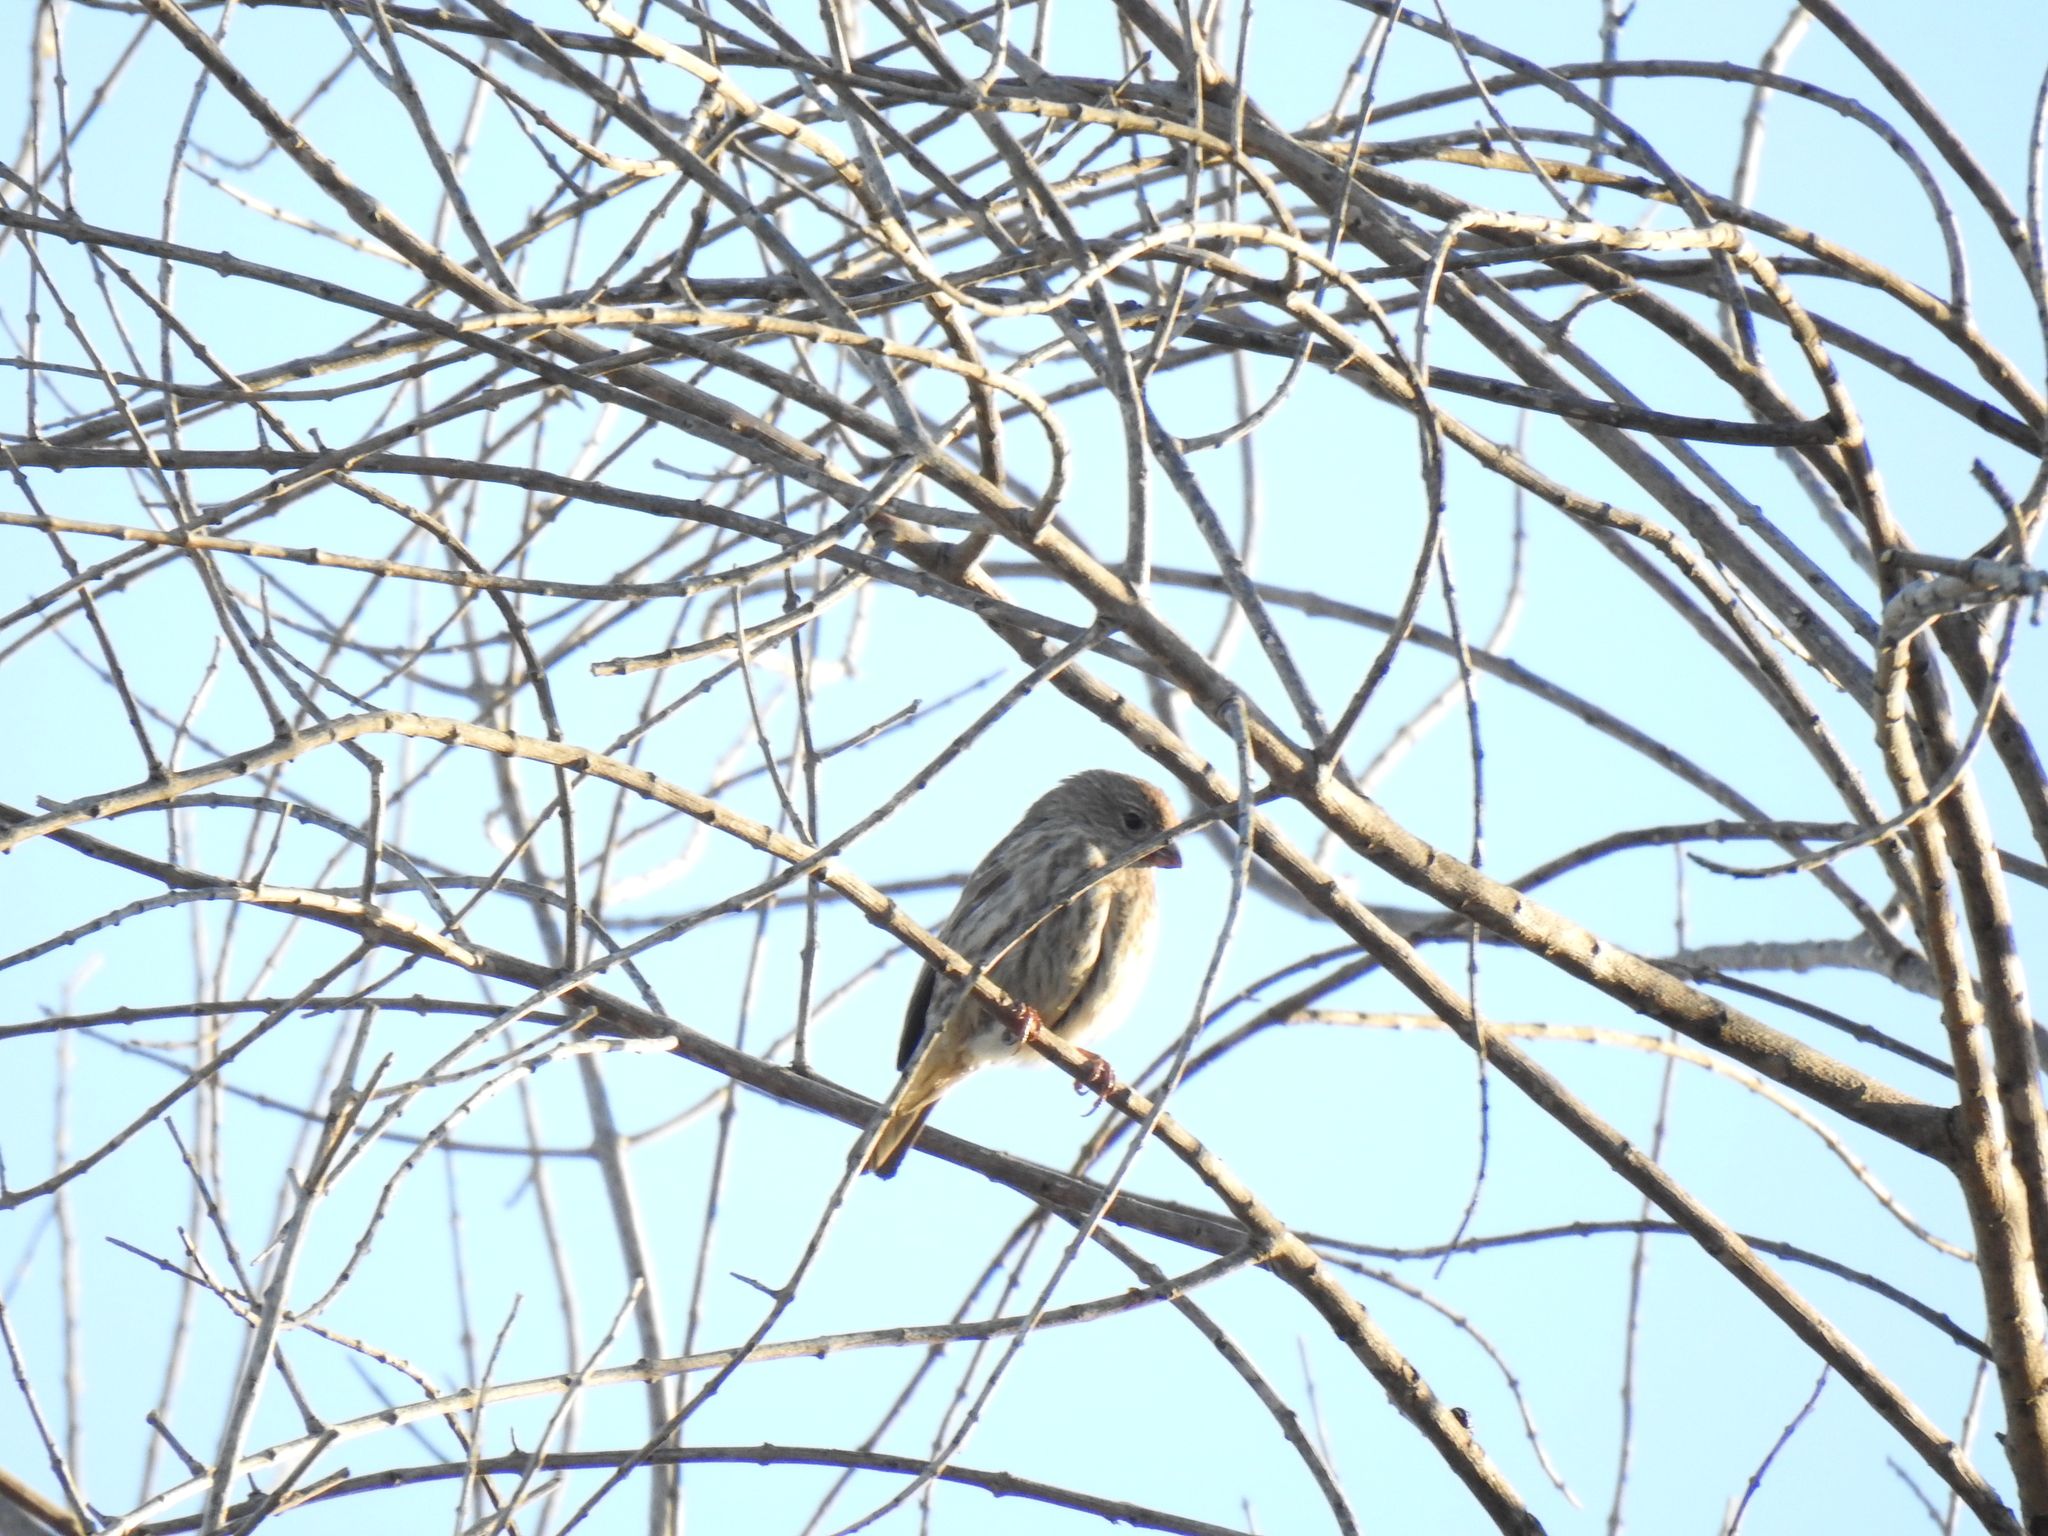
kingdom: Animalia
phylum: Chordata
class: Aves
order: Passeriformes
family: Fringillidae
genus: Haemorhous
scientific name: Haemorhous mexicanus
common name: House finch
